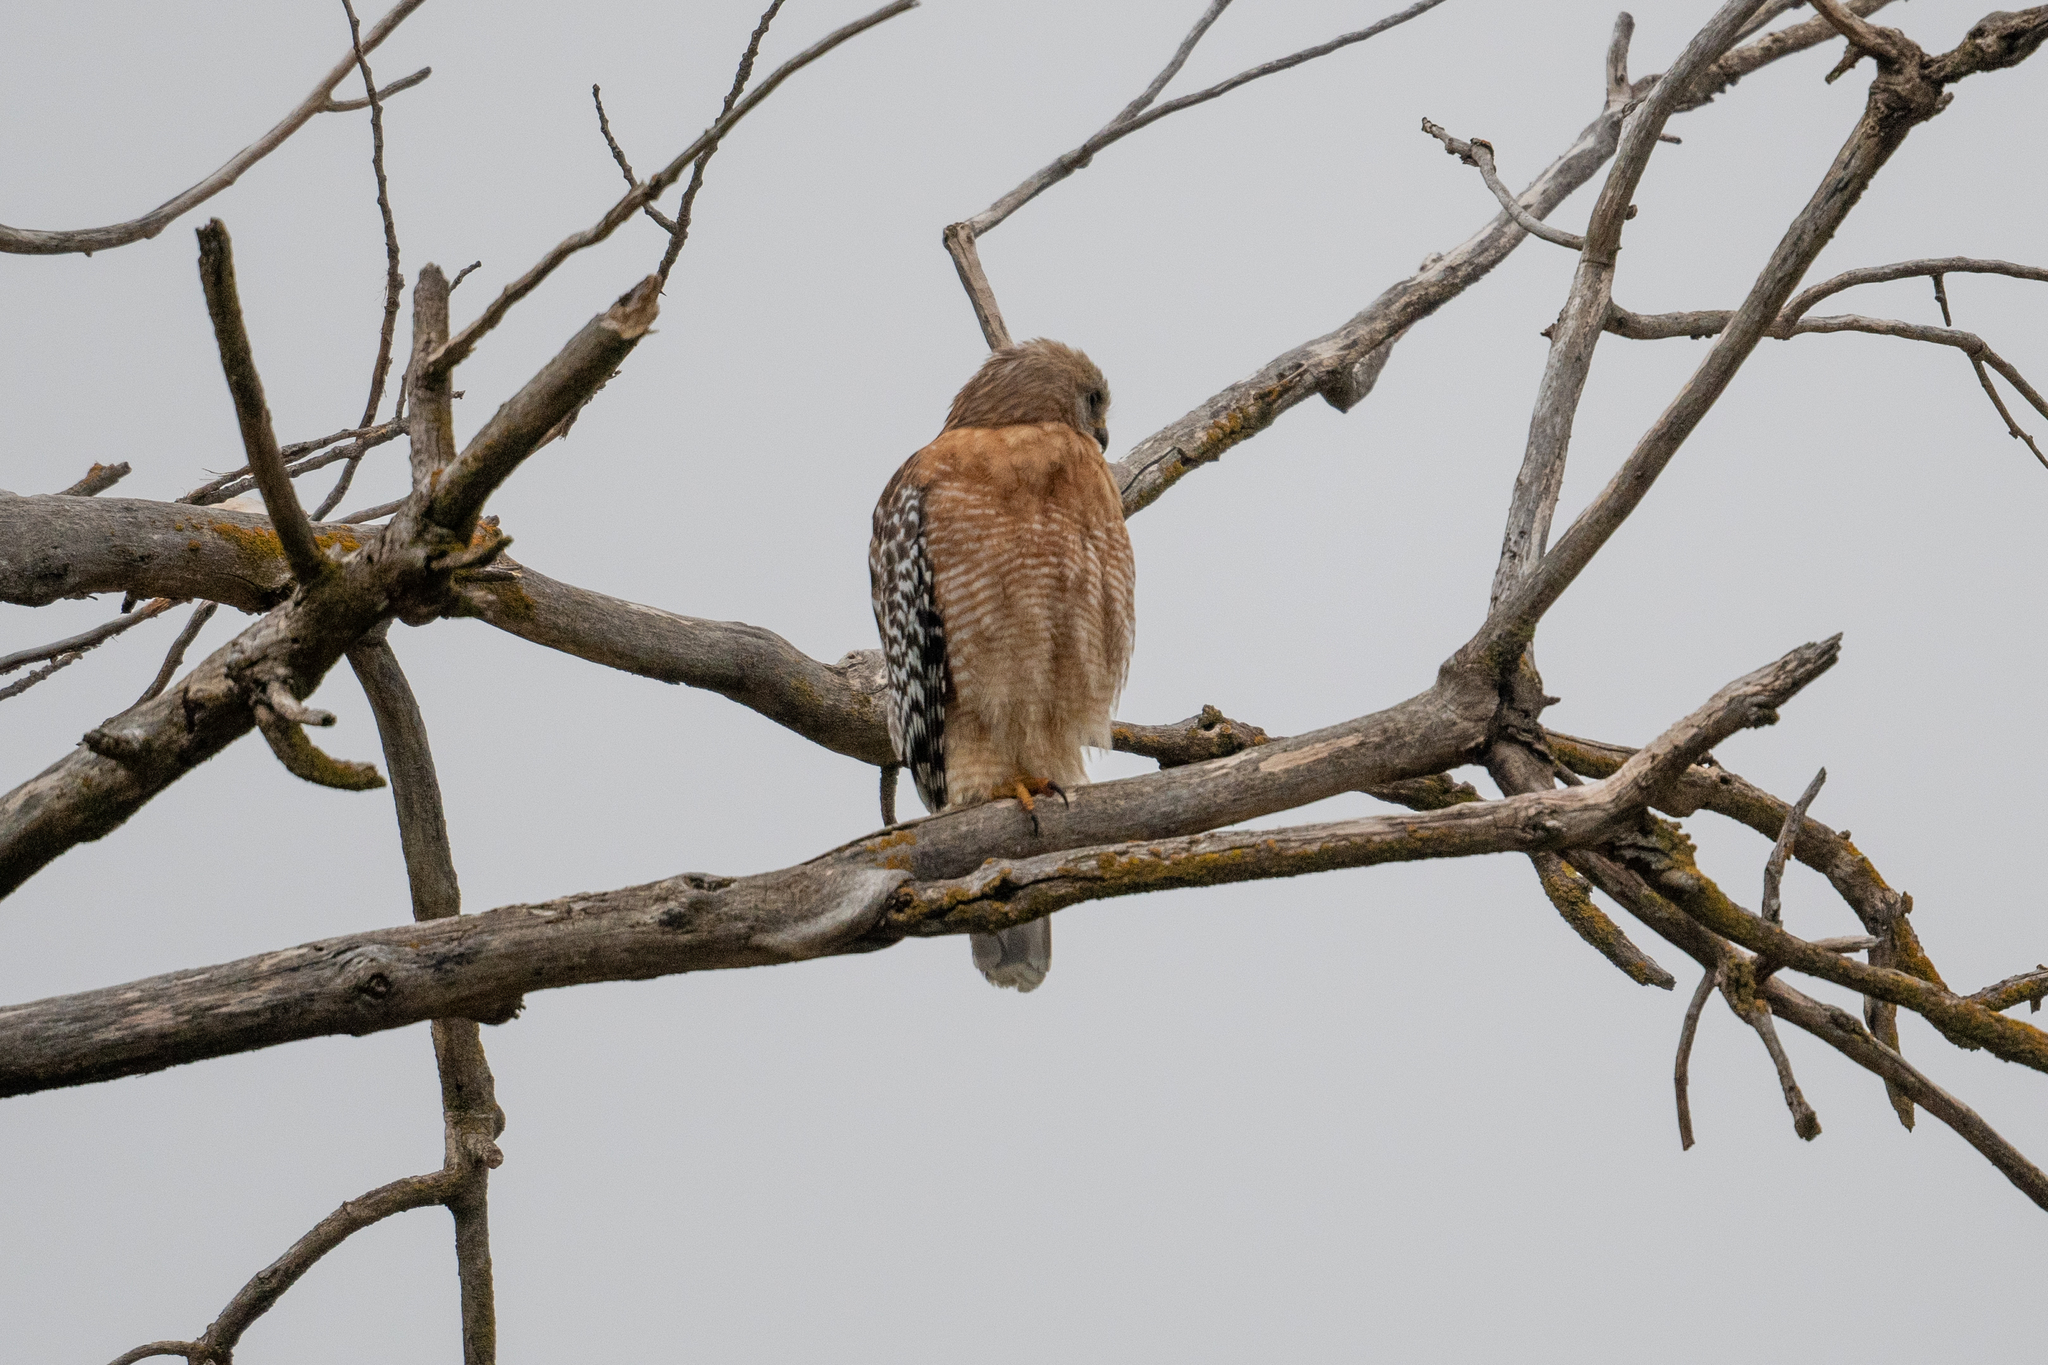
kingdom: Animalia
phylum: Chordata
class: Aves
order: Accipitriformes
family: Accipitridae
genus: Buteo
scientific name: Buteo lineatus
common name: Red-shouldered hawk
